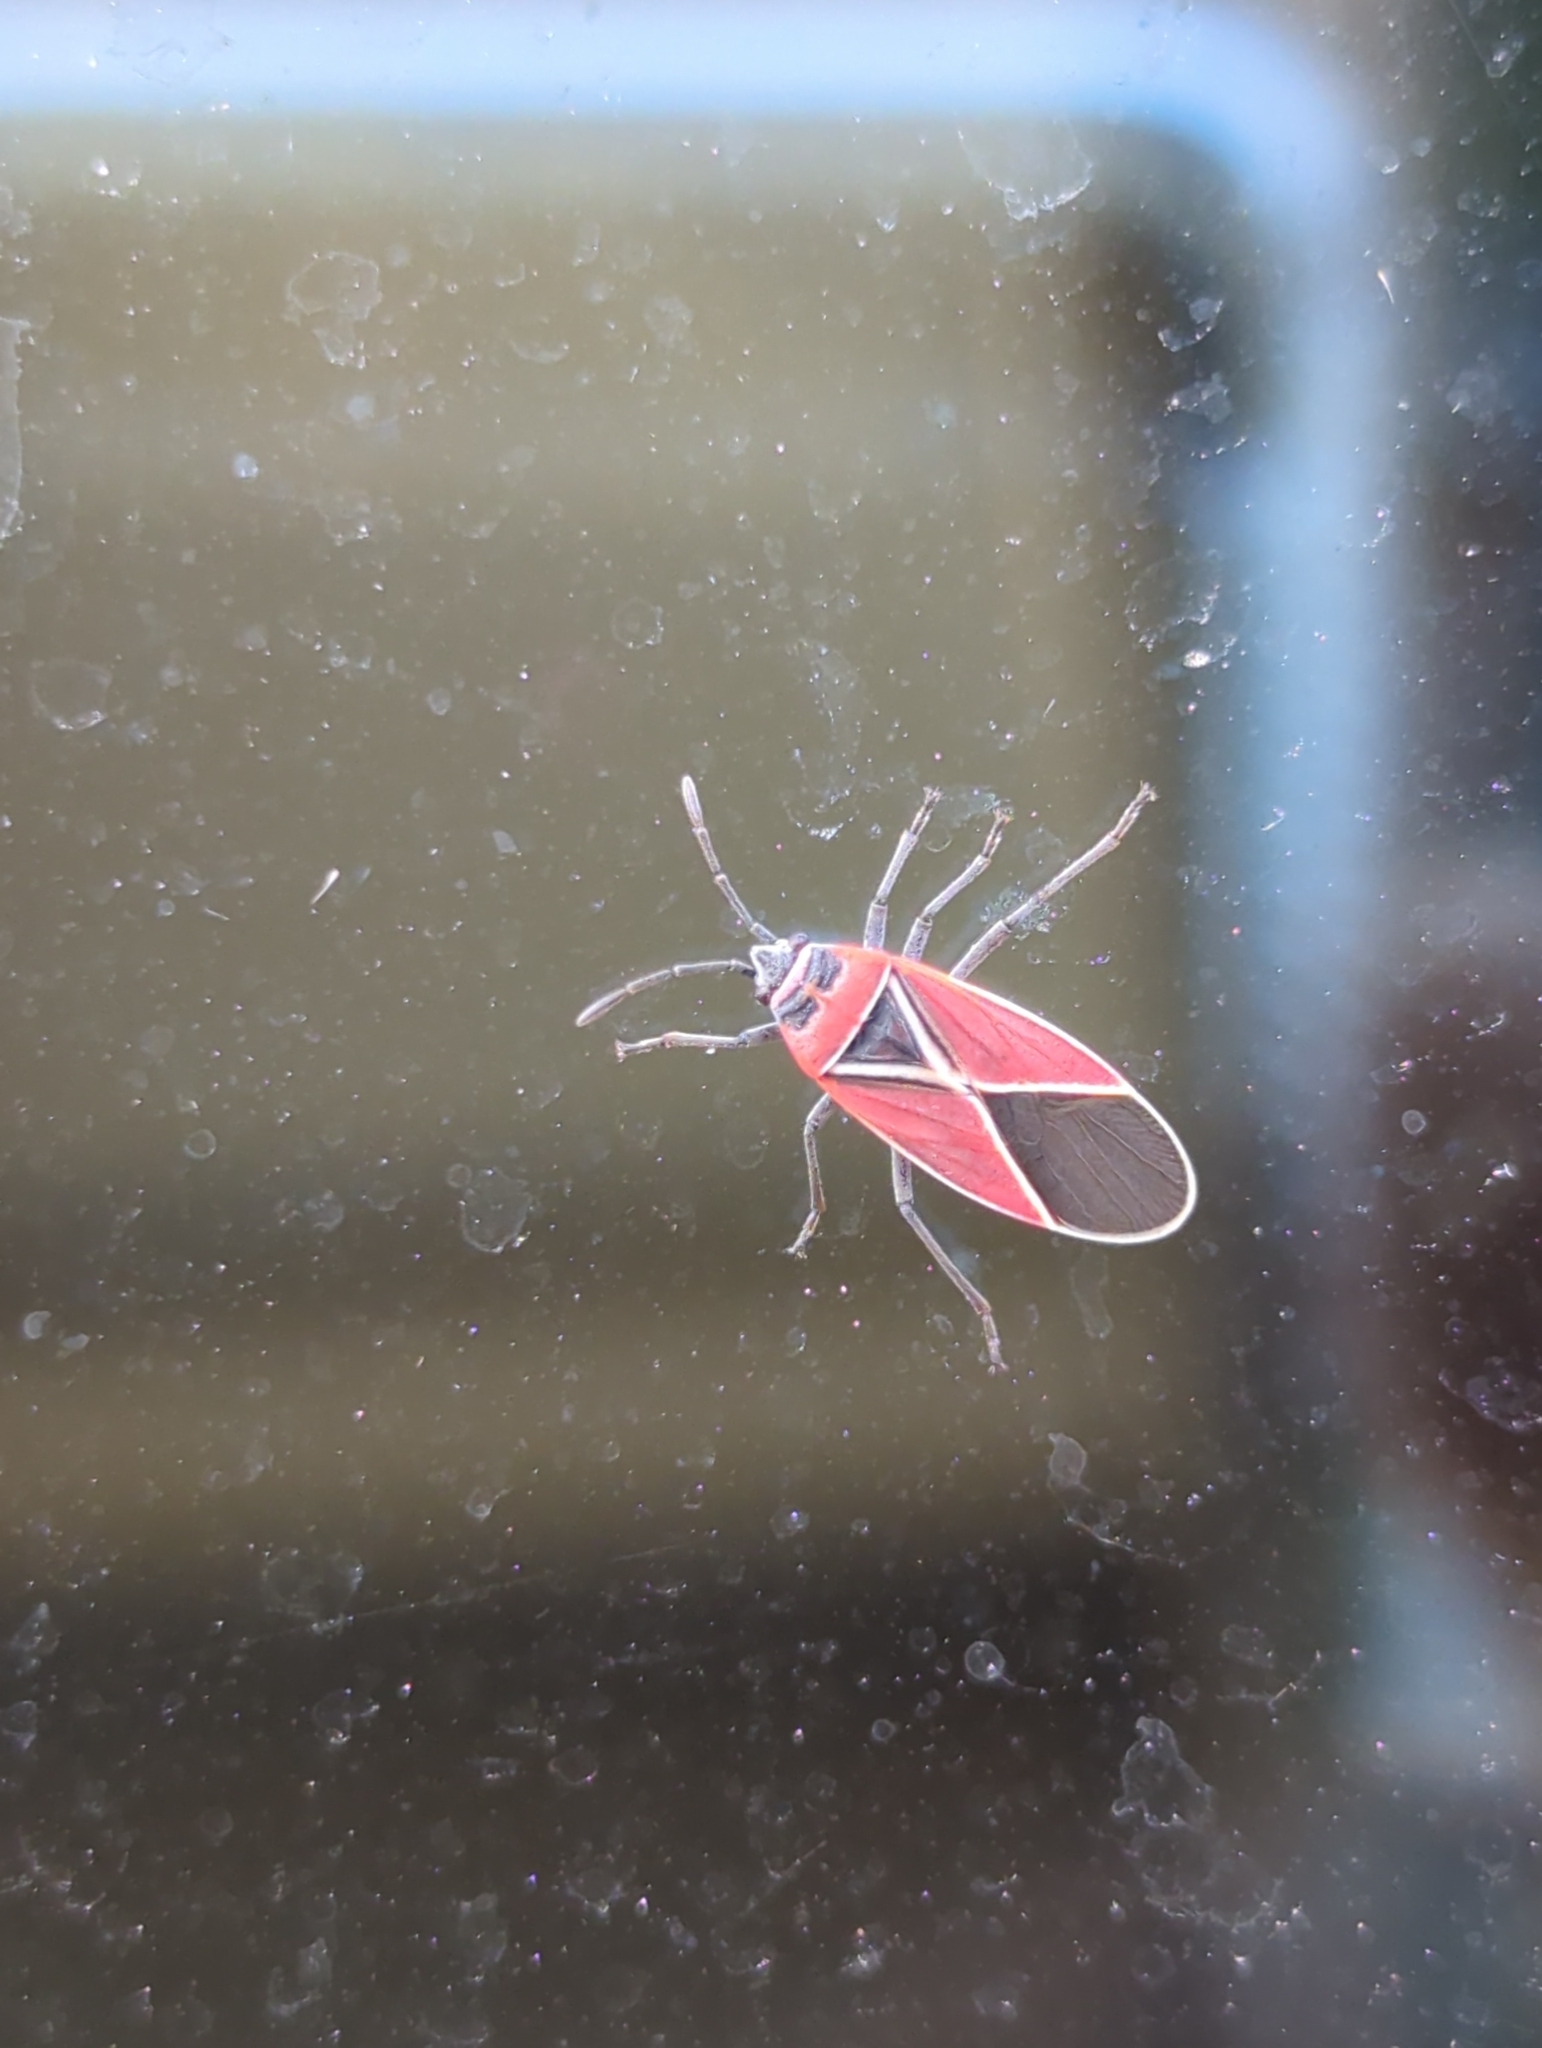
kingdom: Animalia
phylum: Arthropoda
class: Insecta
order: Hemiptera
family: Lygaeidae
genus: Neacoryphus
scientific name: Neacoryphus bicrucis
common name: Lygaeid bug
